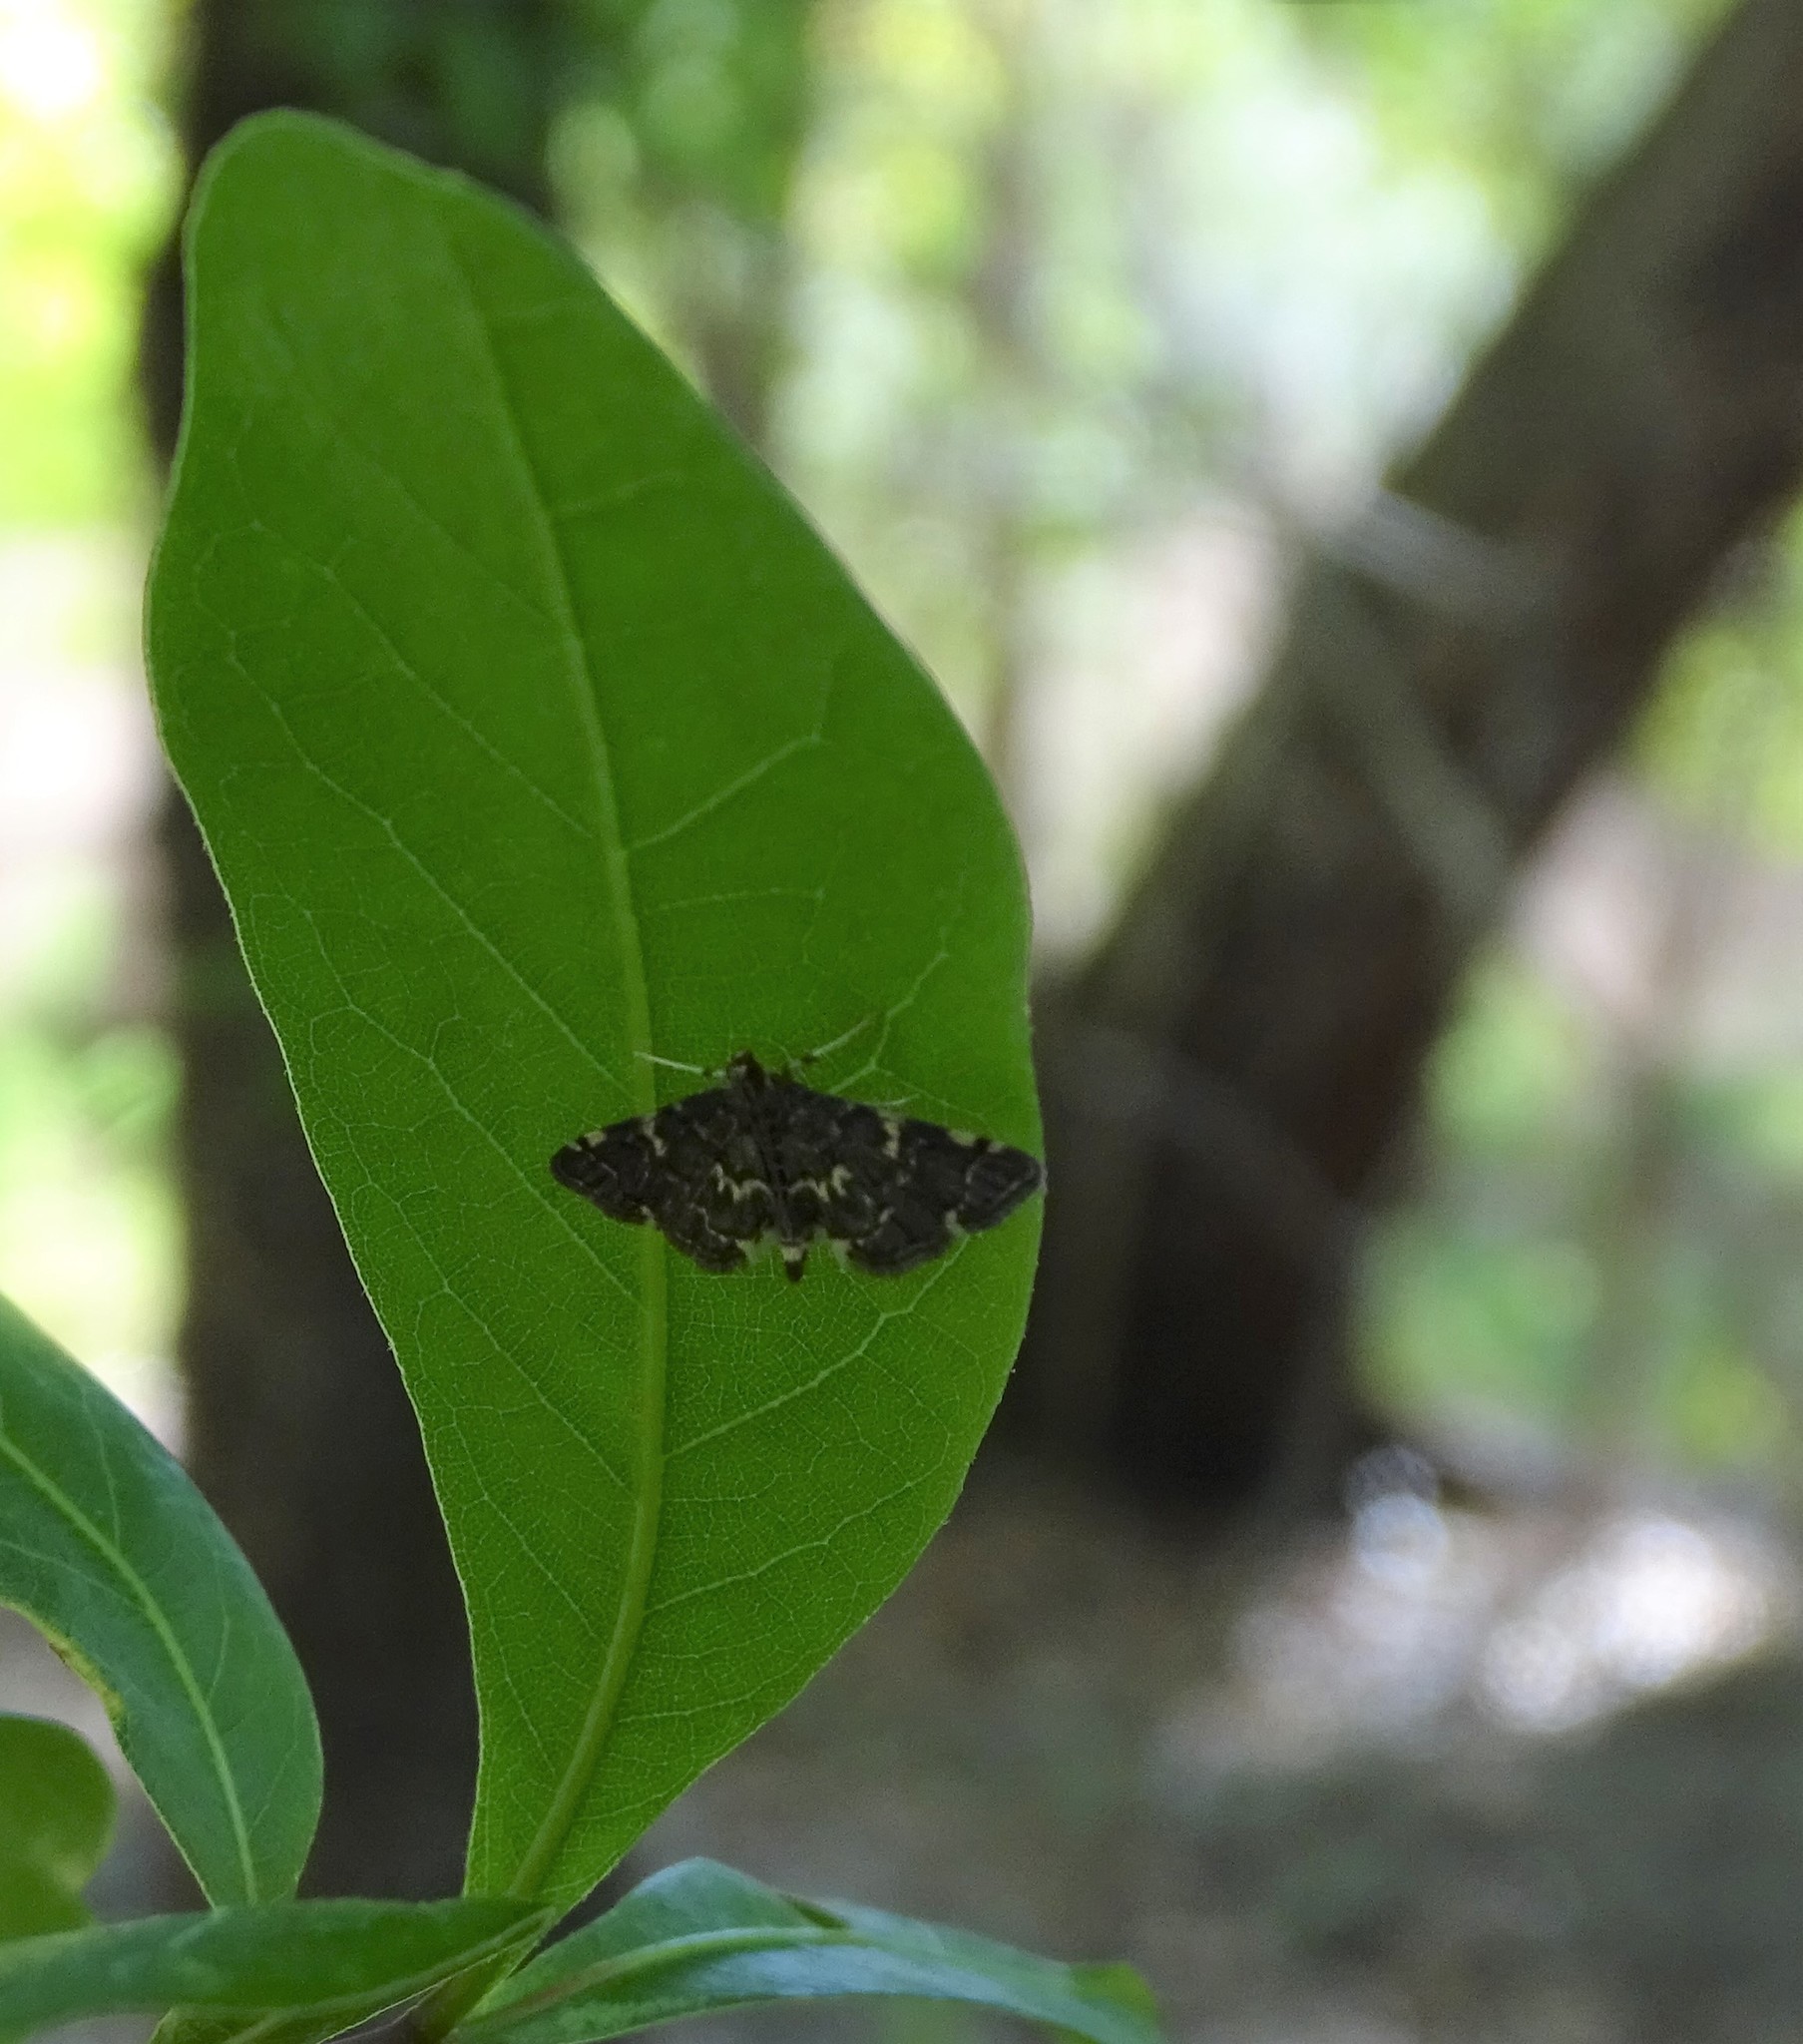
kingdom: Animalia
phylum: Arthropoda
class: Insecta
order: Lepidoptera
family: Crambidae
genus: Anageshna
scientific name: Anageshna primordialis
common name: Yellow-spotted webworm moth
